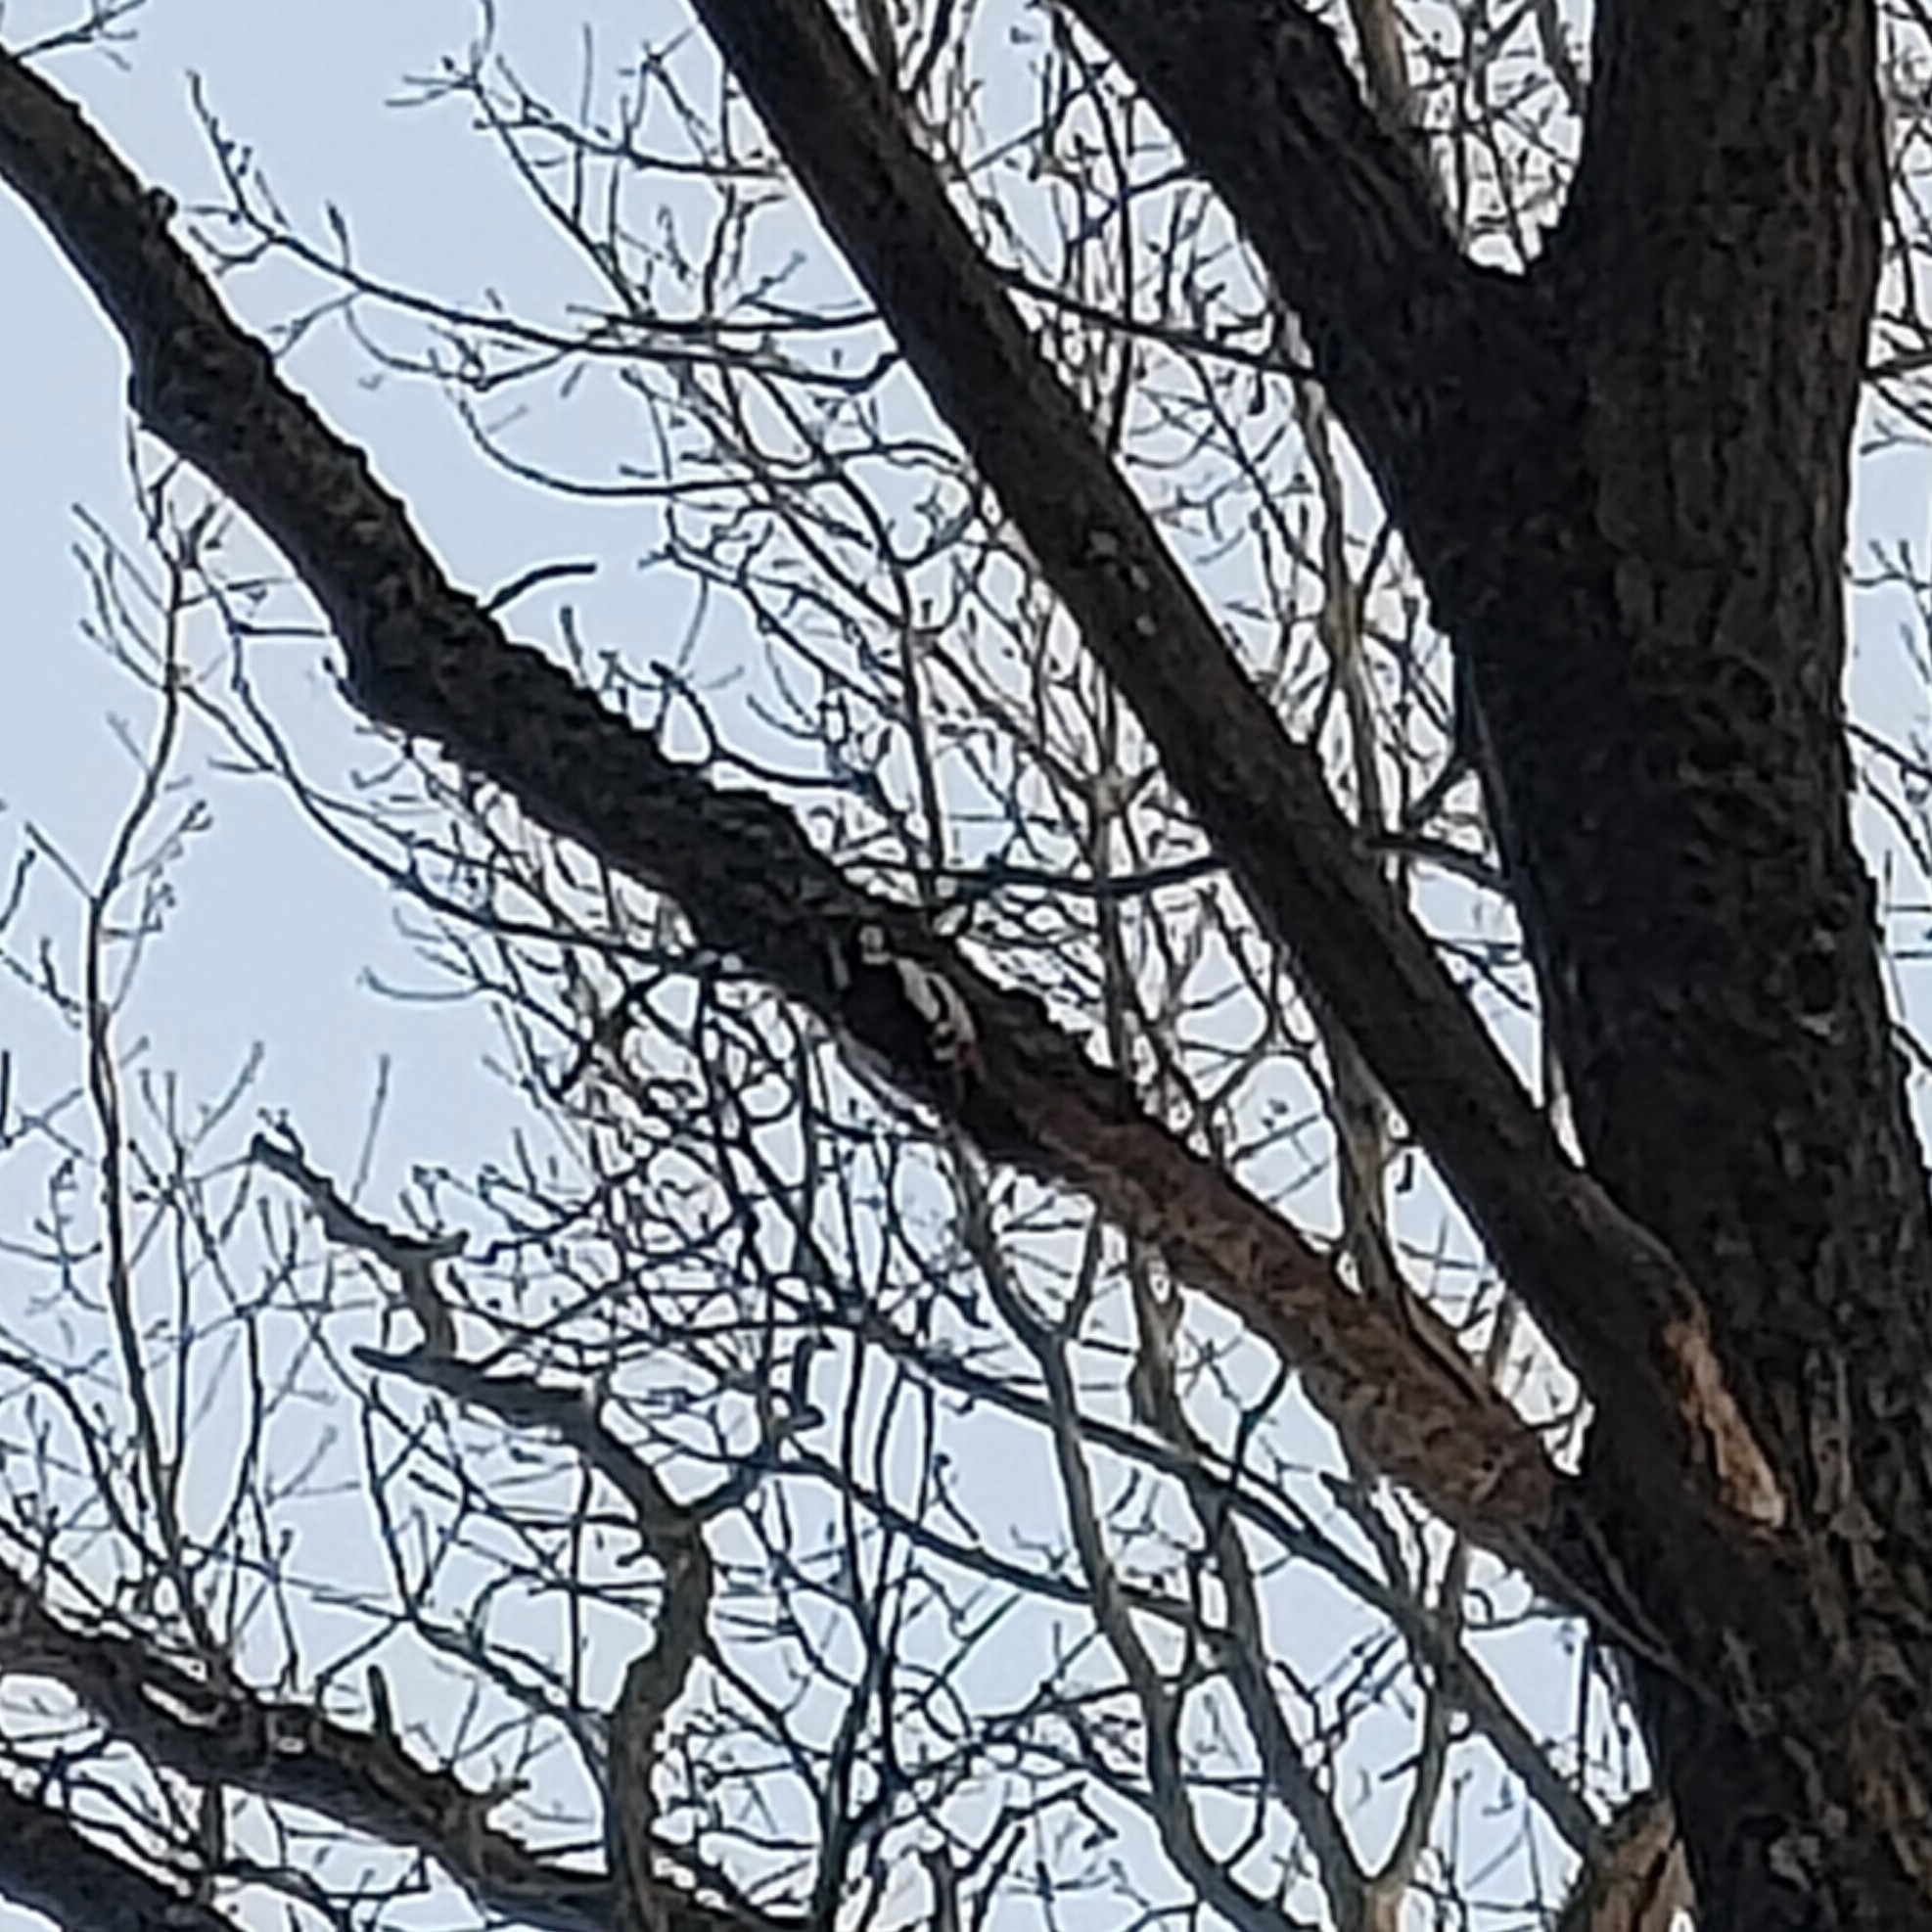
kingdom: Animalia
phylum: Chordata
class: Aves
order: Piciformes
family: Picidae
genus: Dendrocopos
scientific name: Dendrocopos major
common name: Great spotted woodpecker
